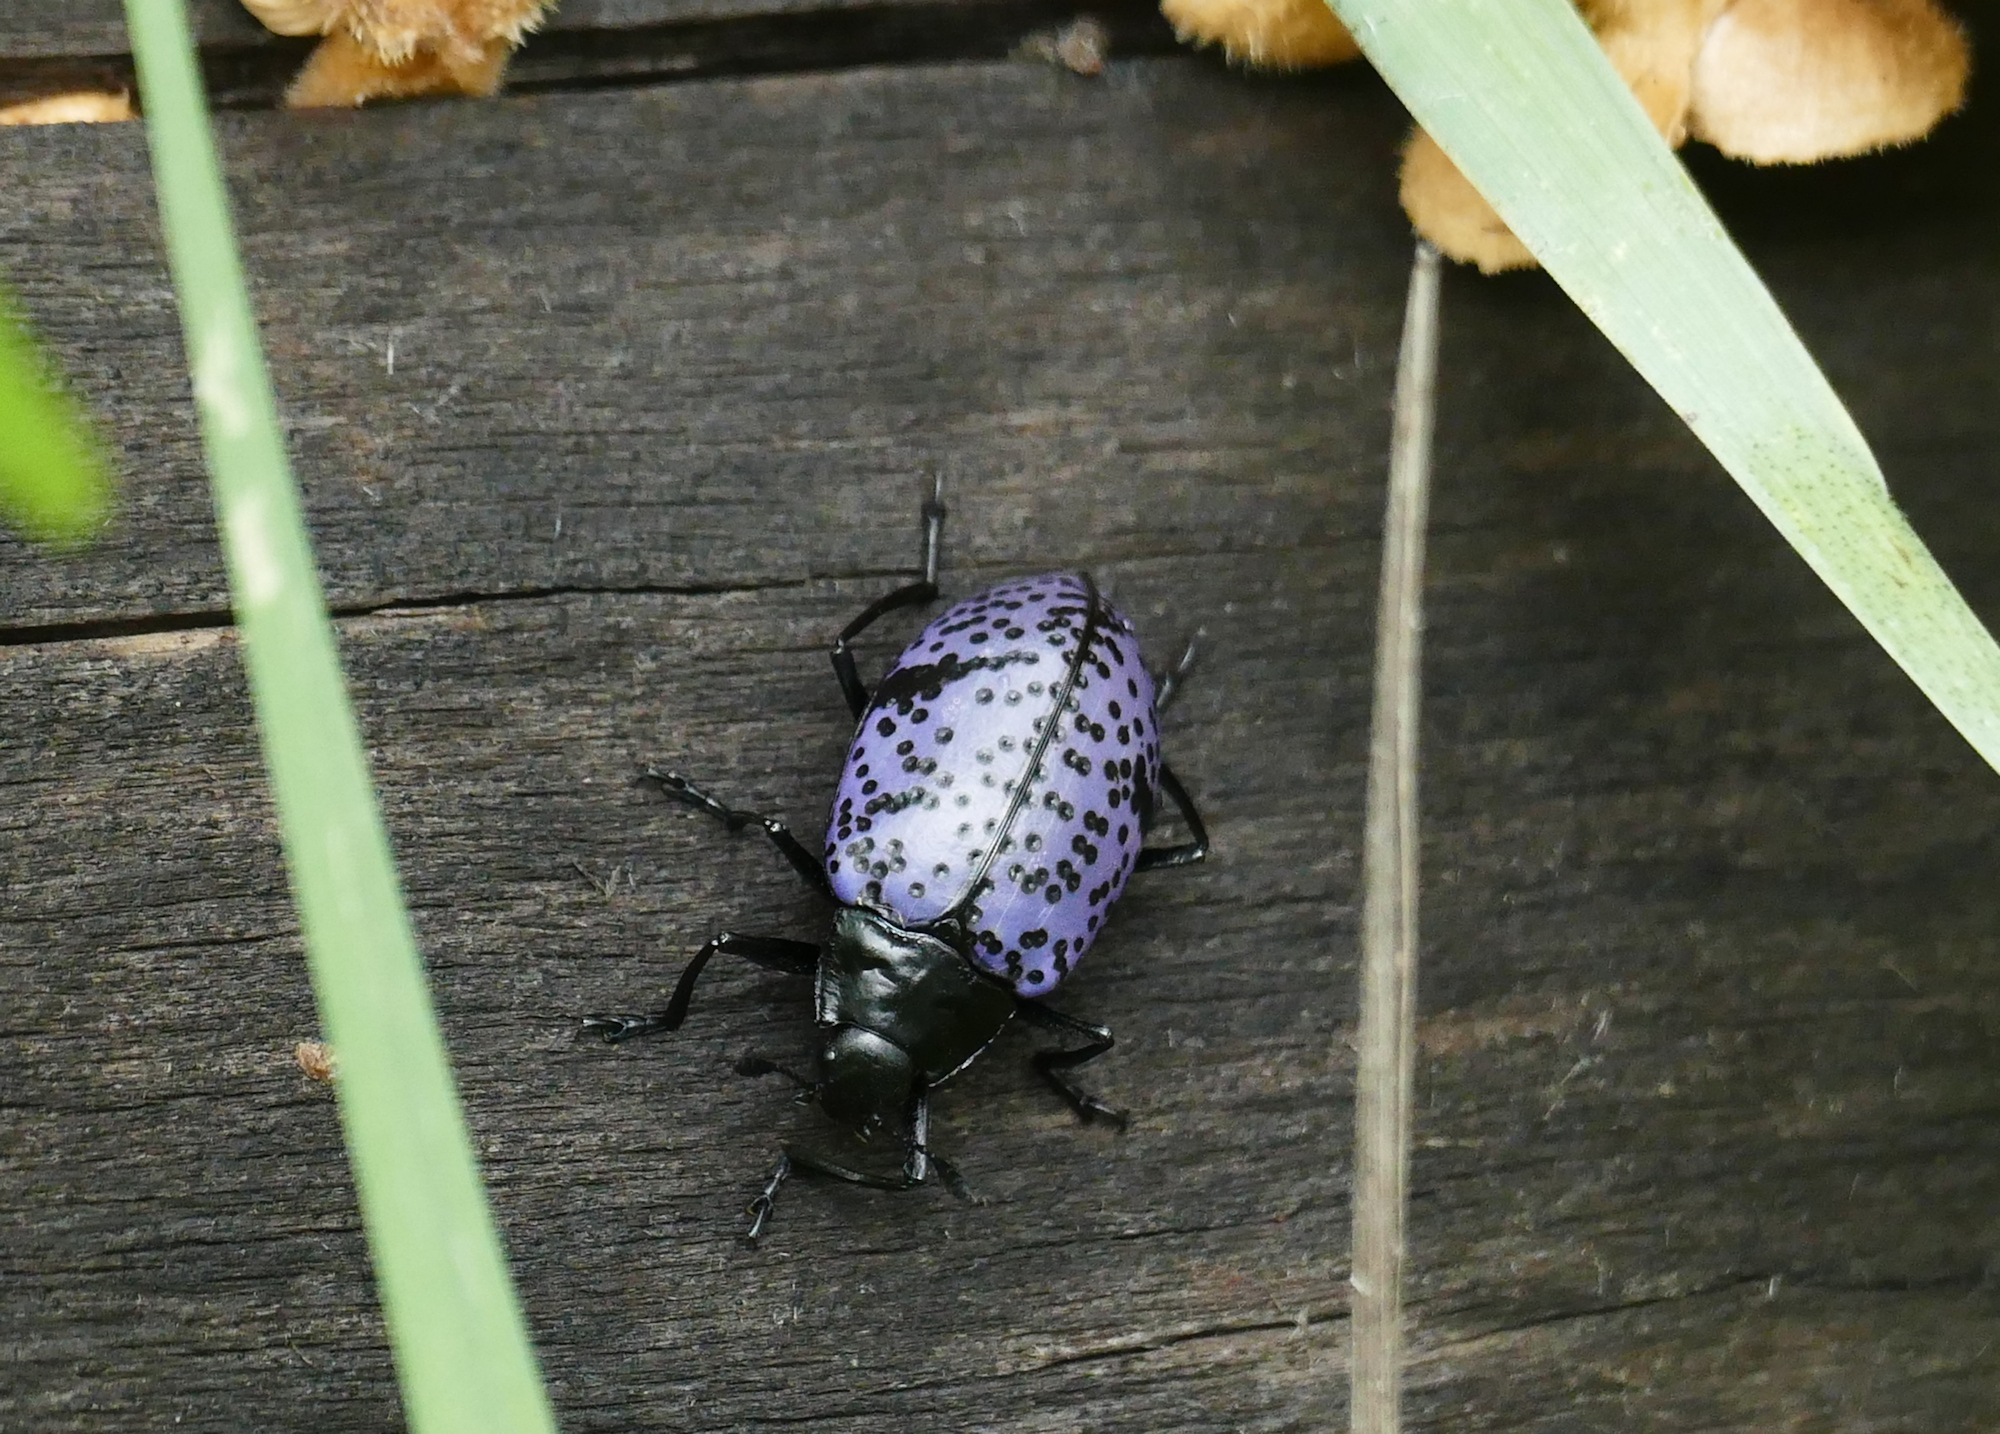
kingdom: Animalia
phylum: Arthropoda
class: Insecta
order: Coleoptera
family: Erotylidae
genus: Gibbifer
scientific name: Gibbifer californicus
